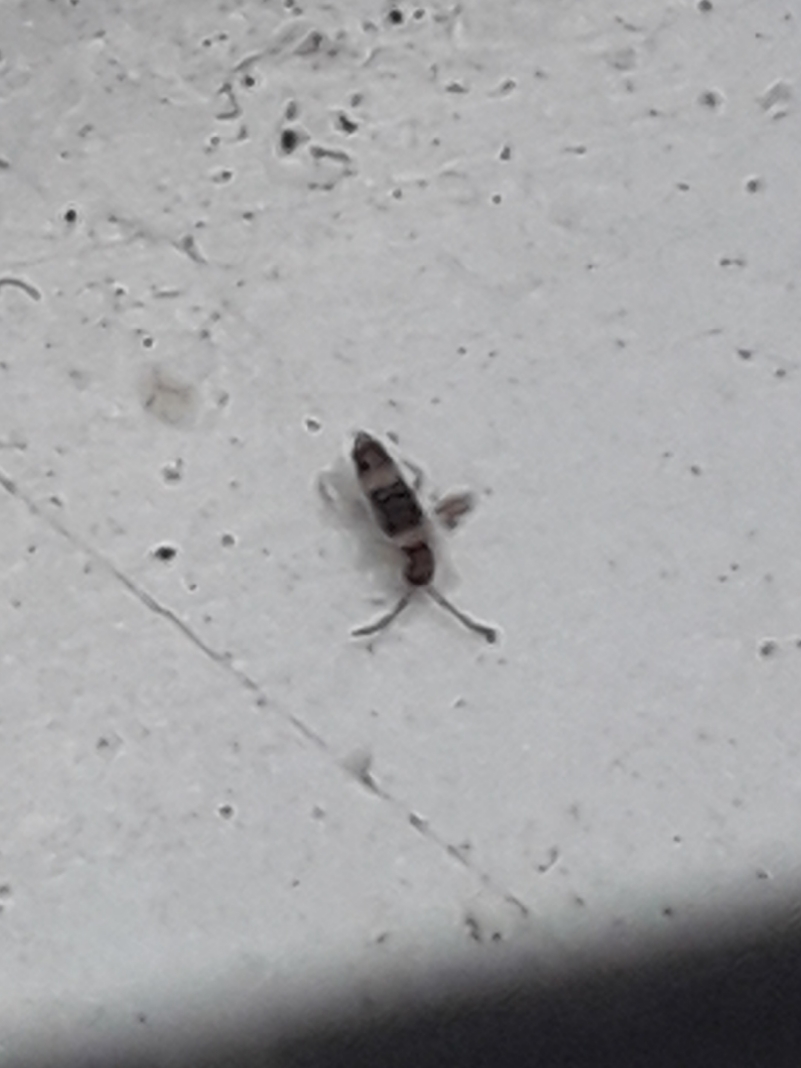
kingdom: Animalia
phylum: Arthropoda
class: Collembola
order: Entomobryomorpha
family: Entomobryidae
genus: Entomobrya
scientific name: Entomobrya albocincta
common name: Springtail
